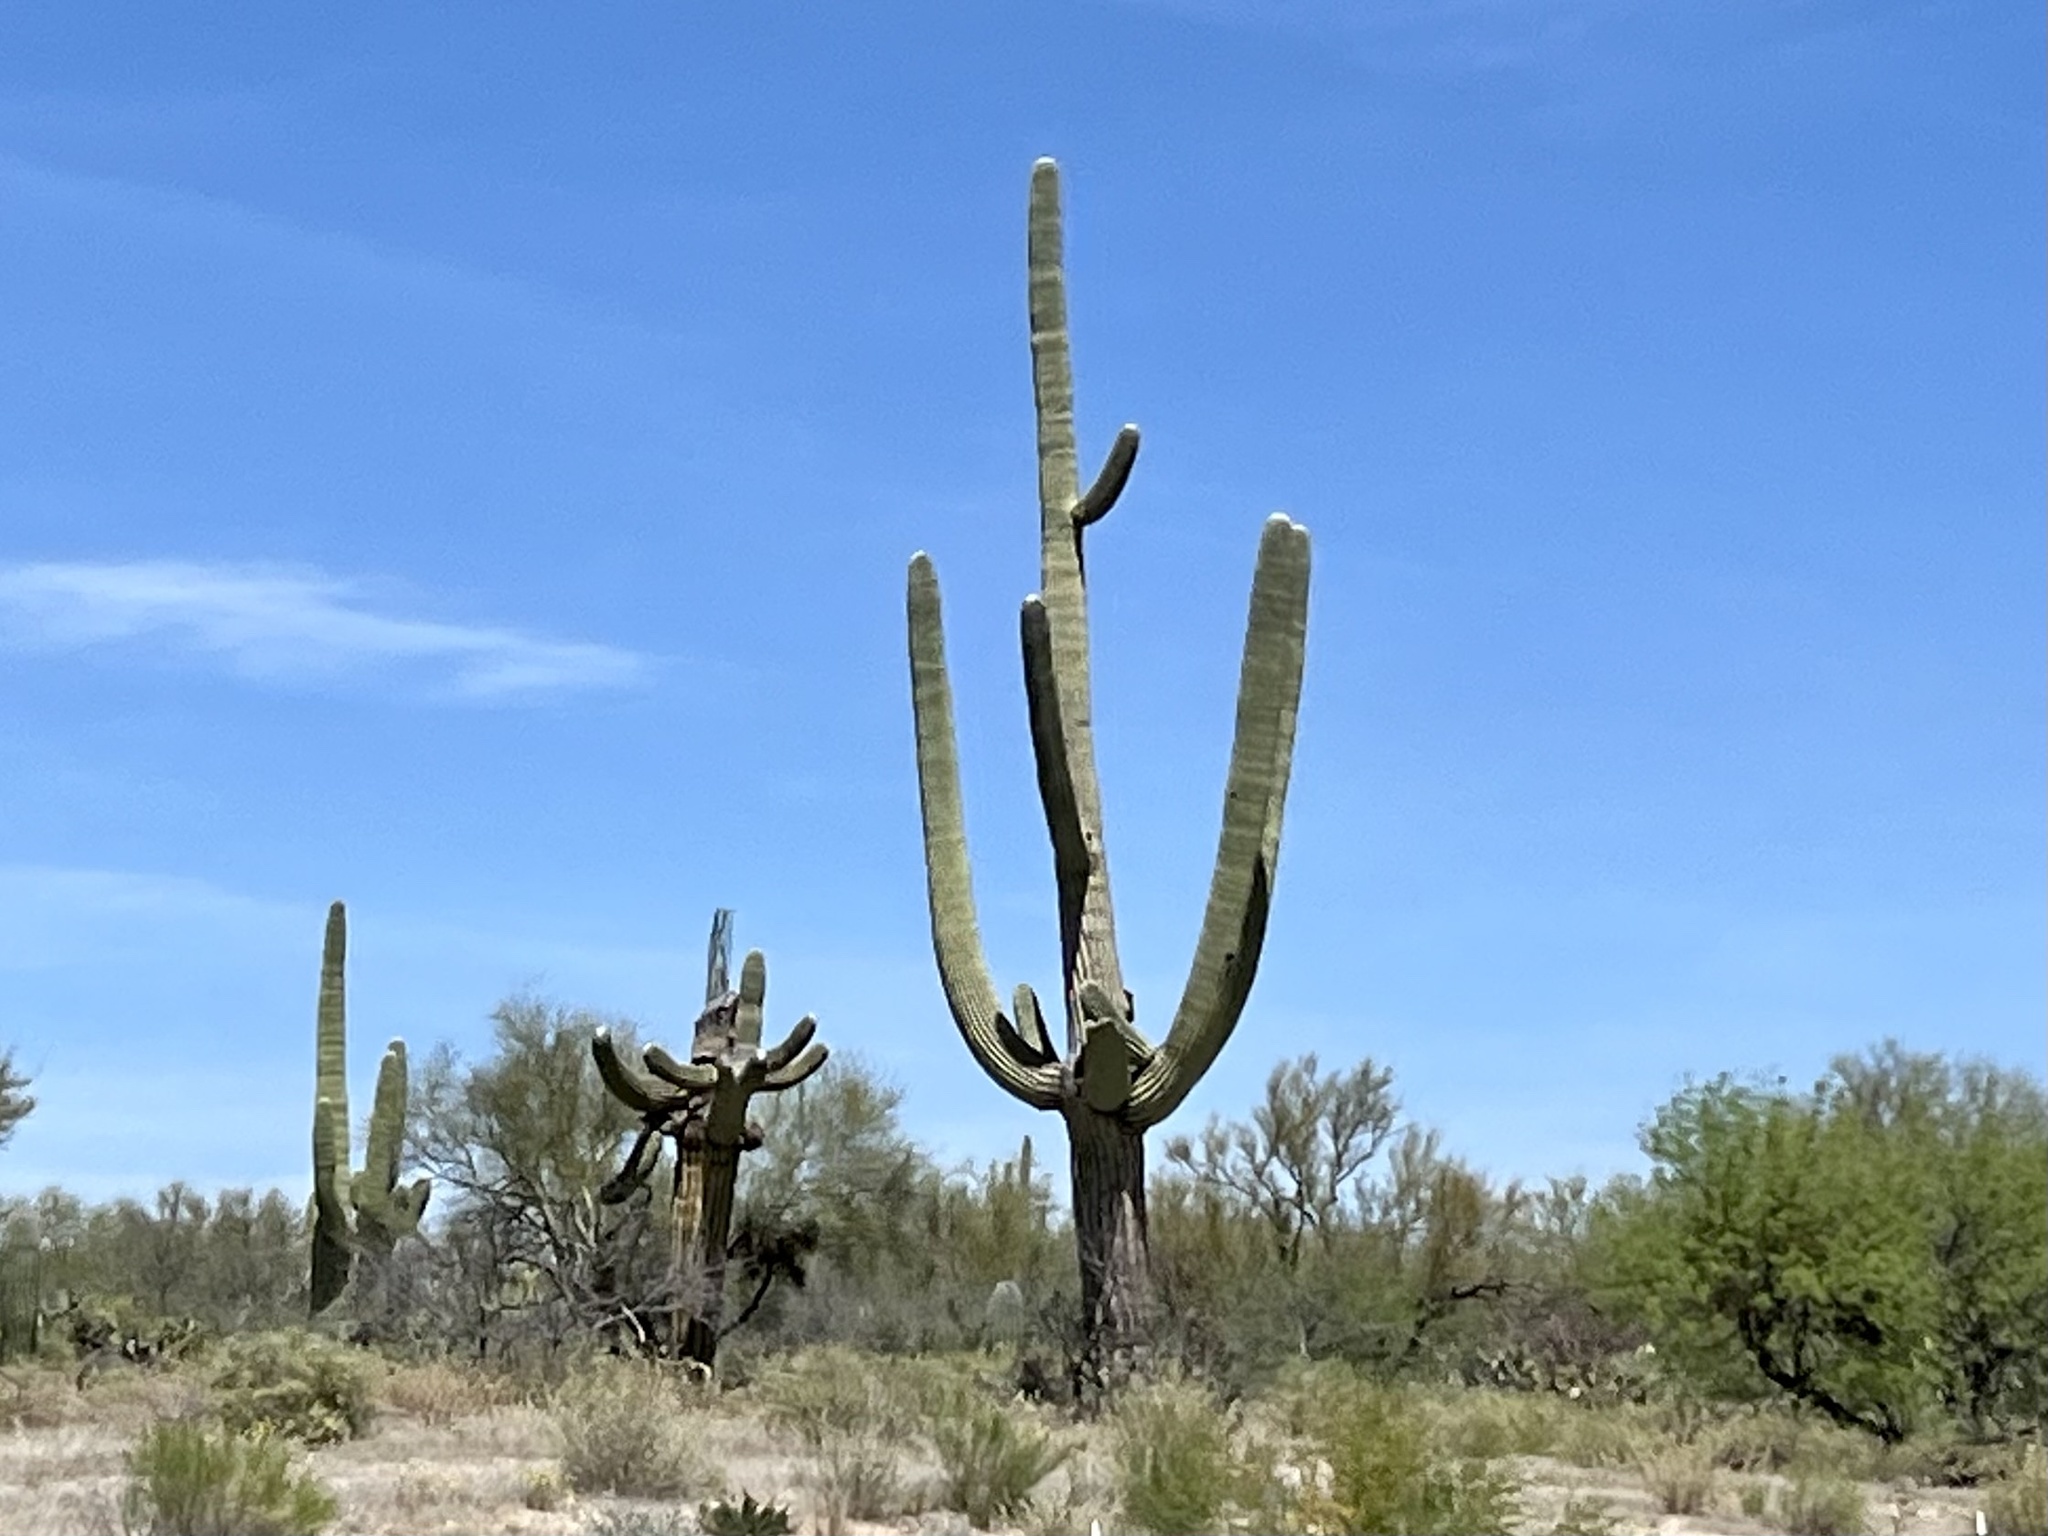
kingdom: Plantae
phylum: Tracheophyta
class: Magnoliopsida
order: Caryophyllales
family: Cactaceae
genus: Carnegiea
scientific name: Carnegiea gigantea
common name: Saguaro
